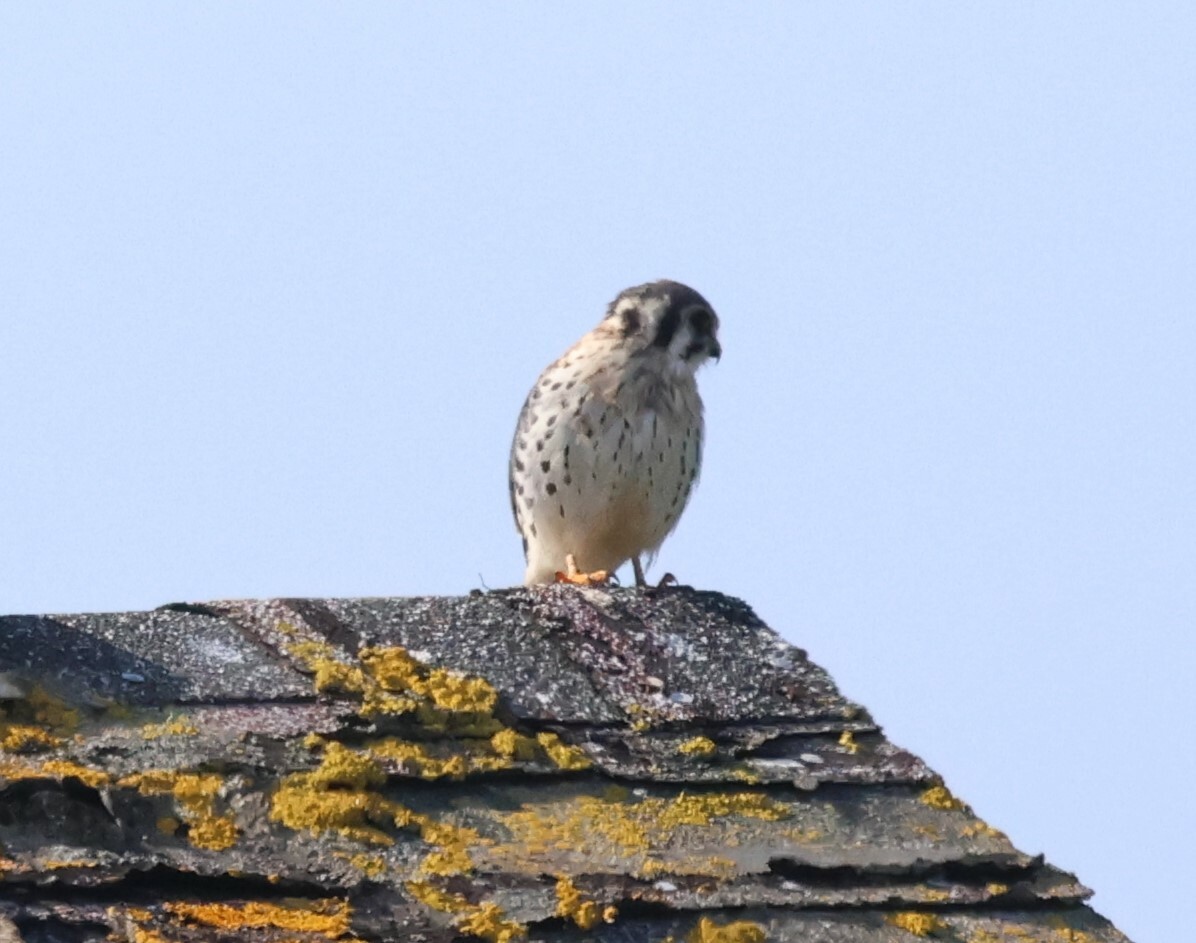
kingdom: Animalia
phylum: Chordata
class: Aves
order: Falconiformes
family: Falconidae
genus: Falco
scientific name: Falco sparverius
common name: American kestrel
